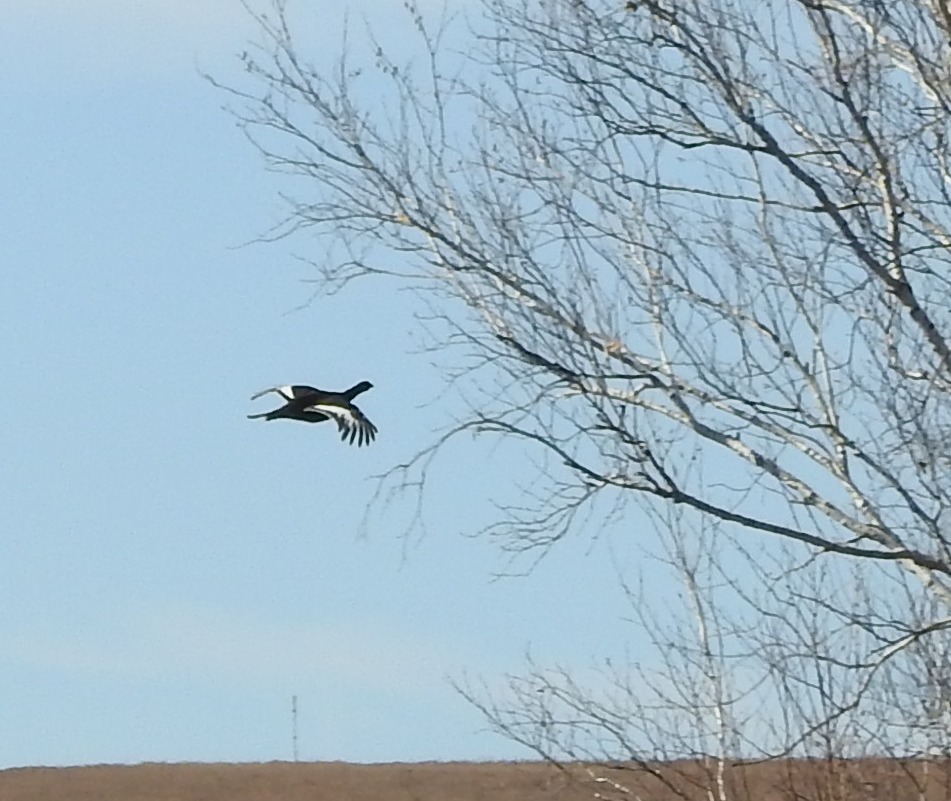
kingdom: Animalia
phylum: Chordata
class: Aves
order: Galliformes
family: Phasianidae
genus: Lyrurus
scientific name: Lyrurus tetrix
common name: Black grouse
